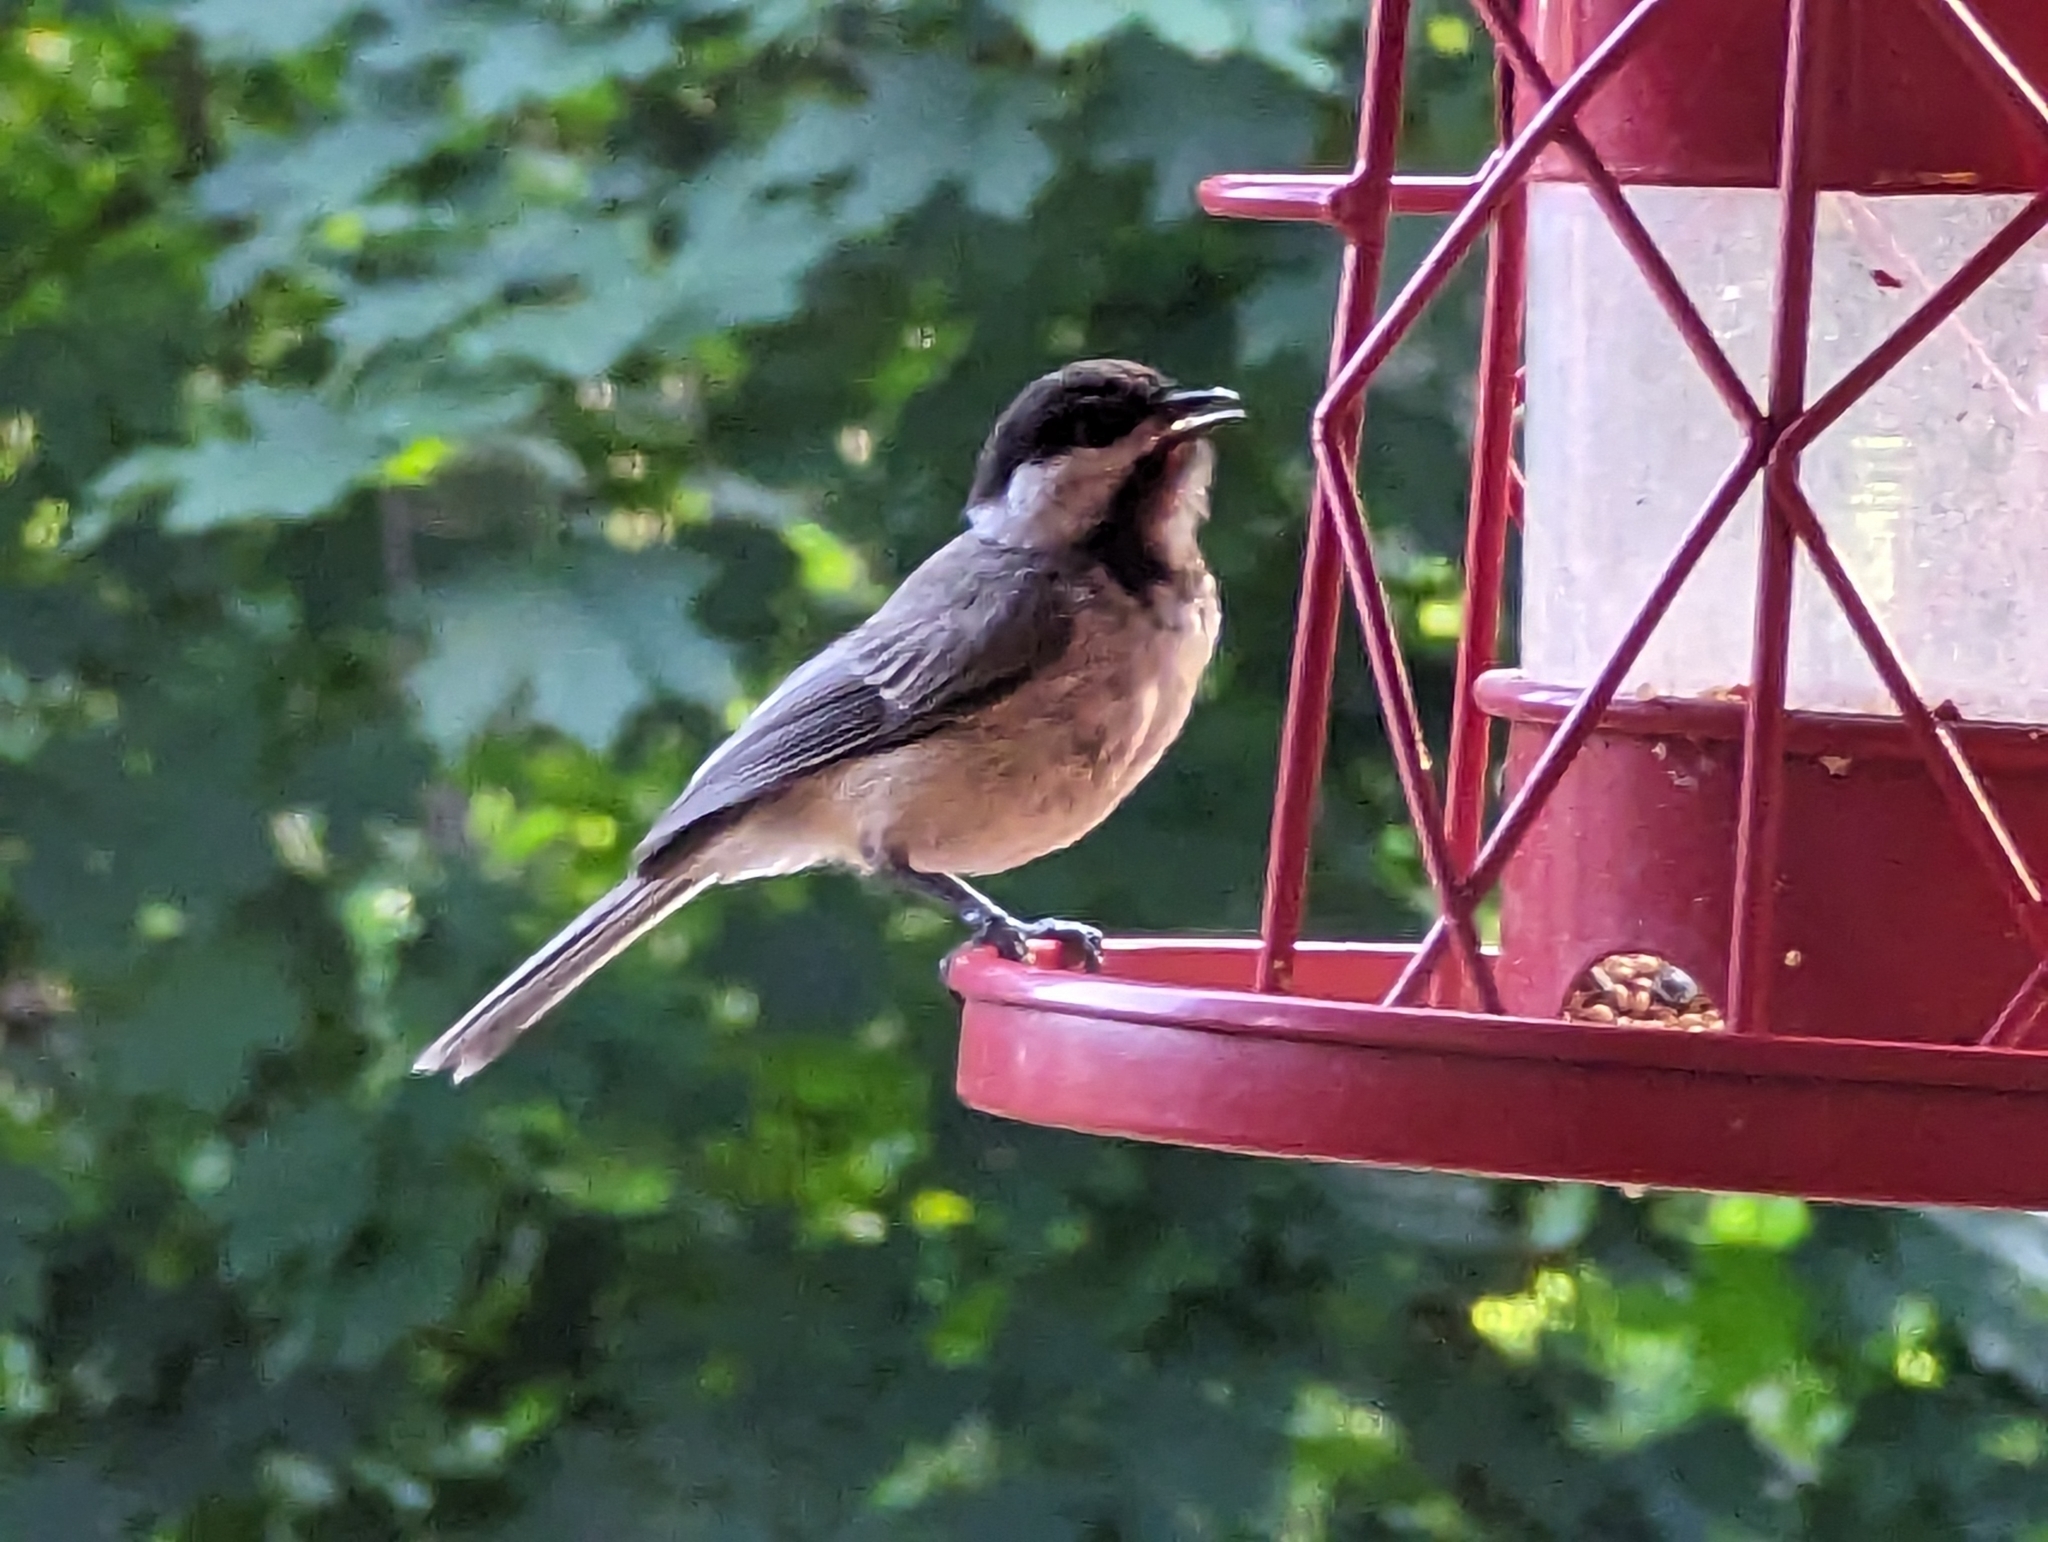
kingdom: Animalia
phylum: Chordata
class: Aves
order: Passeriformes
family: Paridae
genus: Poecile
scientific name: Poecile atricapillus
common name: Black-capped chickadee
